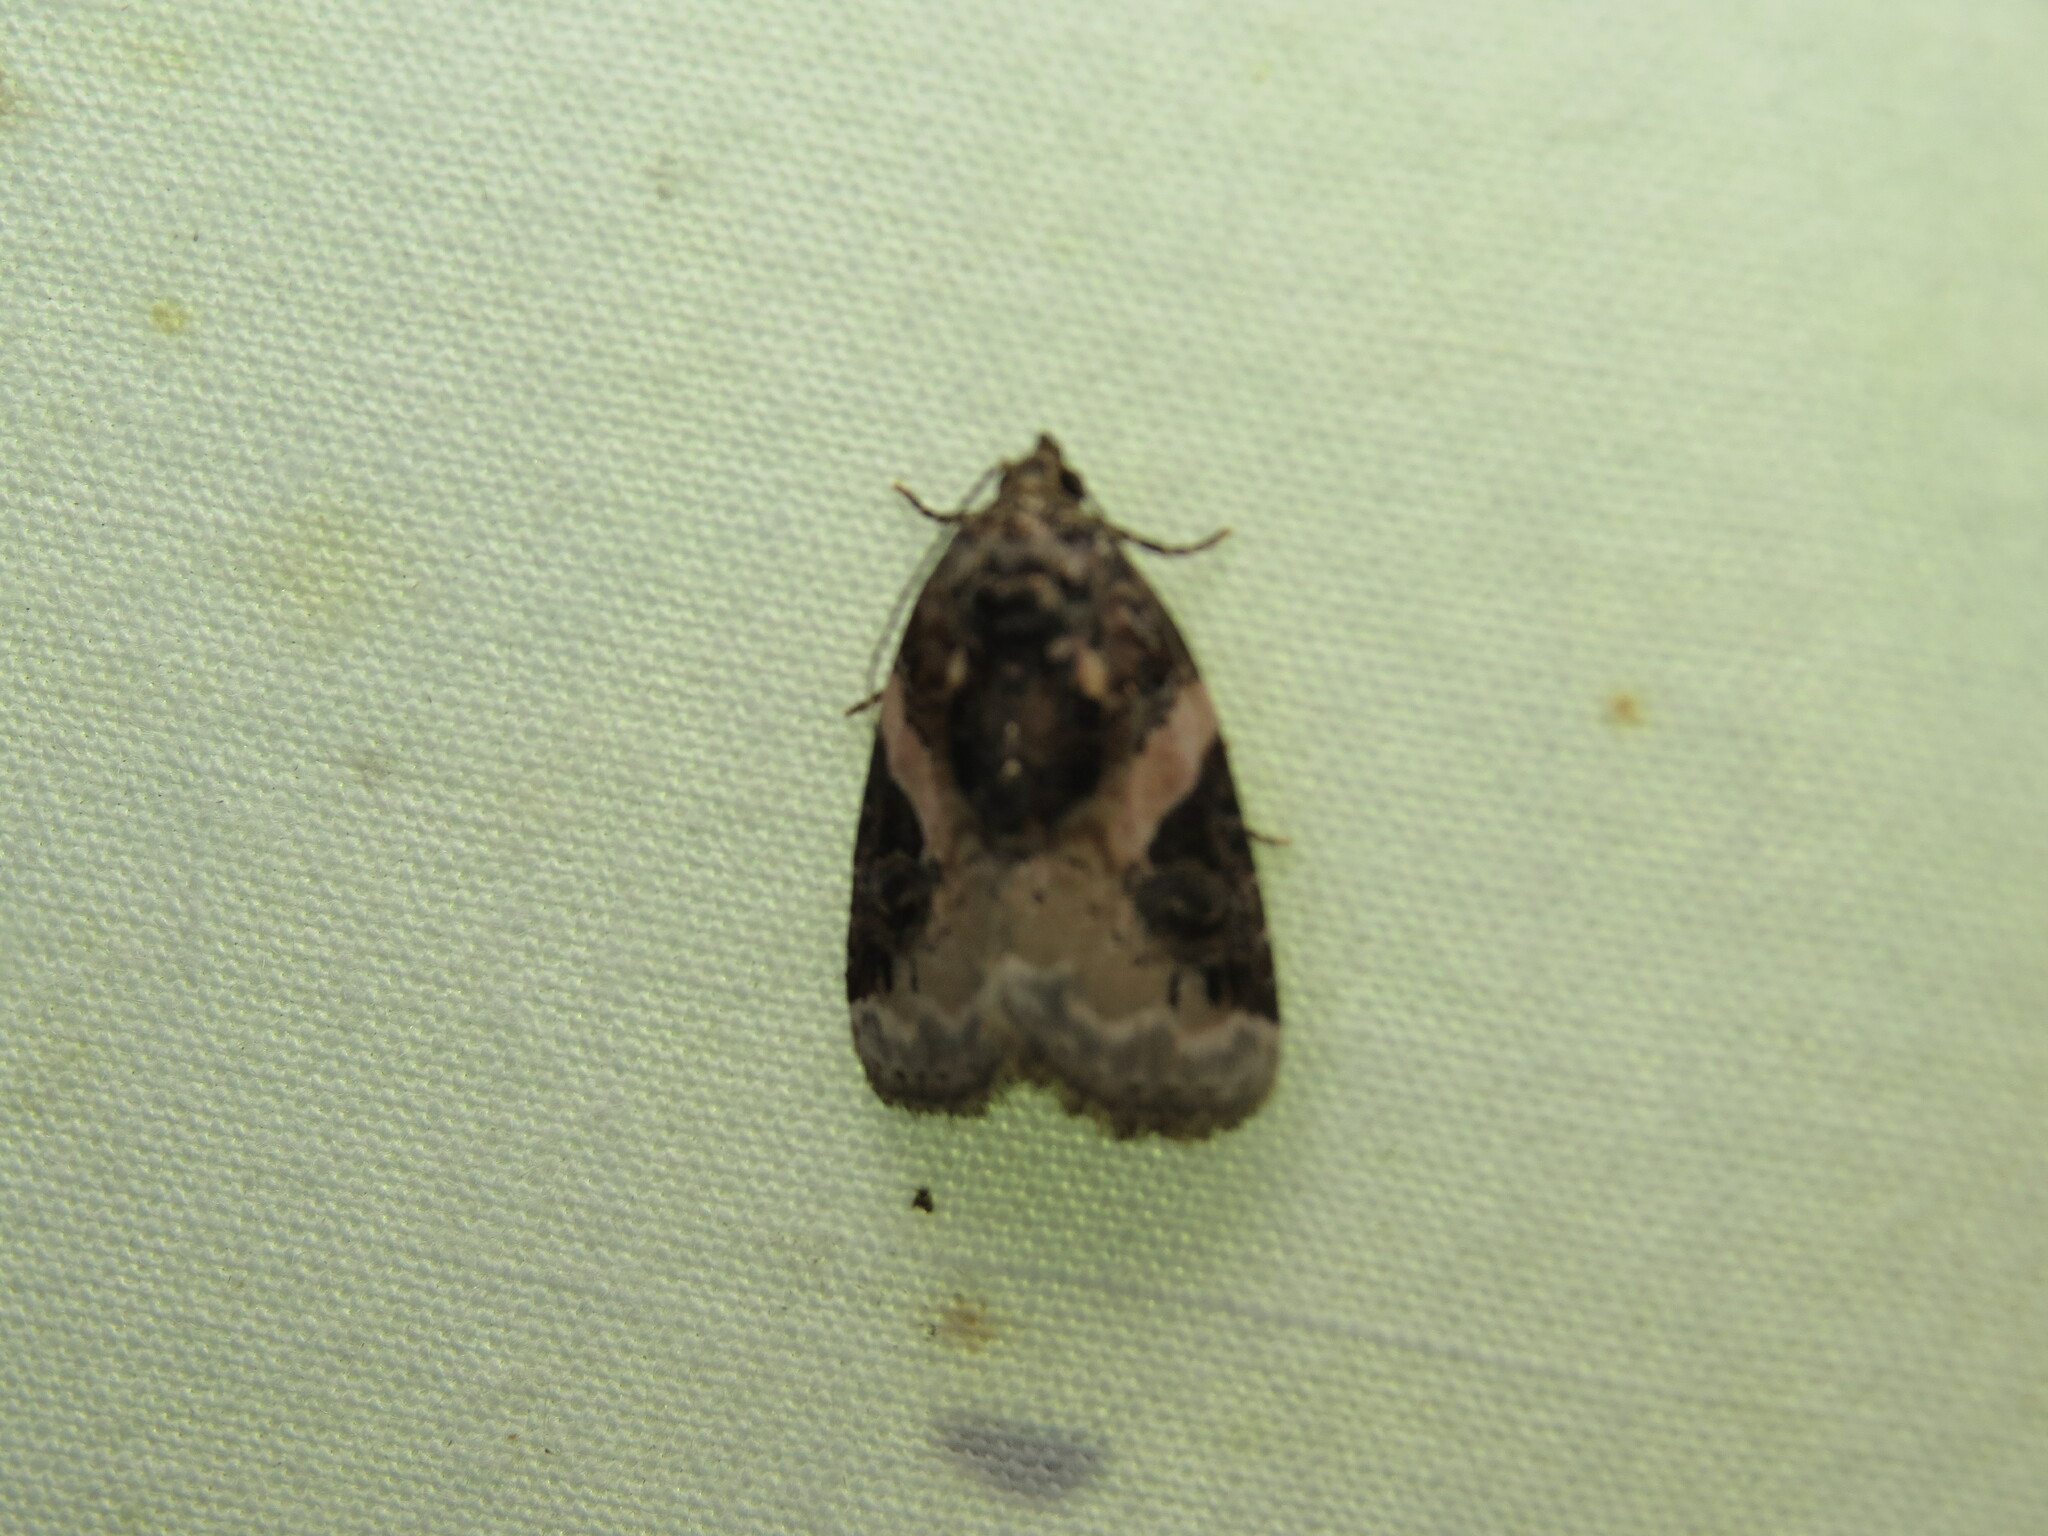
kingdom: Animalia
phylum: Arthropoda
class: Insecta
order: Lepidoptera
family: Noctuidae
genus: Pseudeustrotia
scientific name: Pseudeustrotia carneola
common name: Pink-barred lithacodia moth
